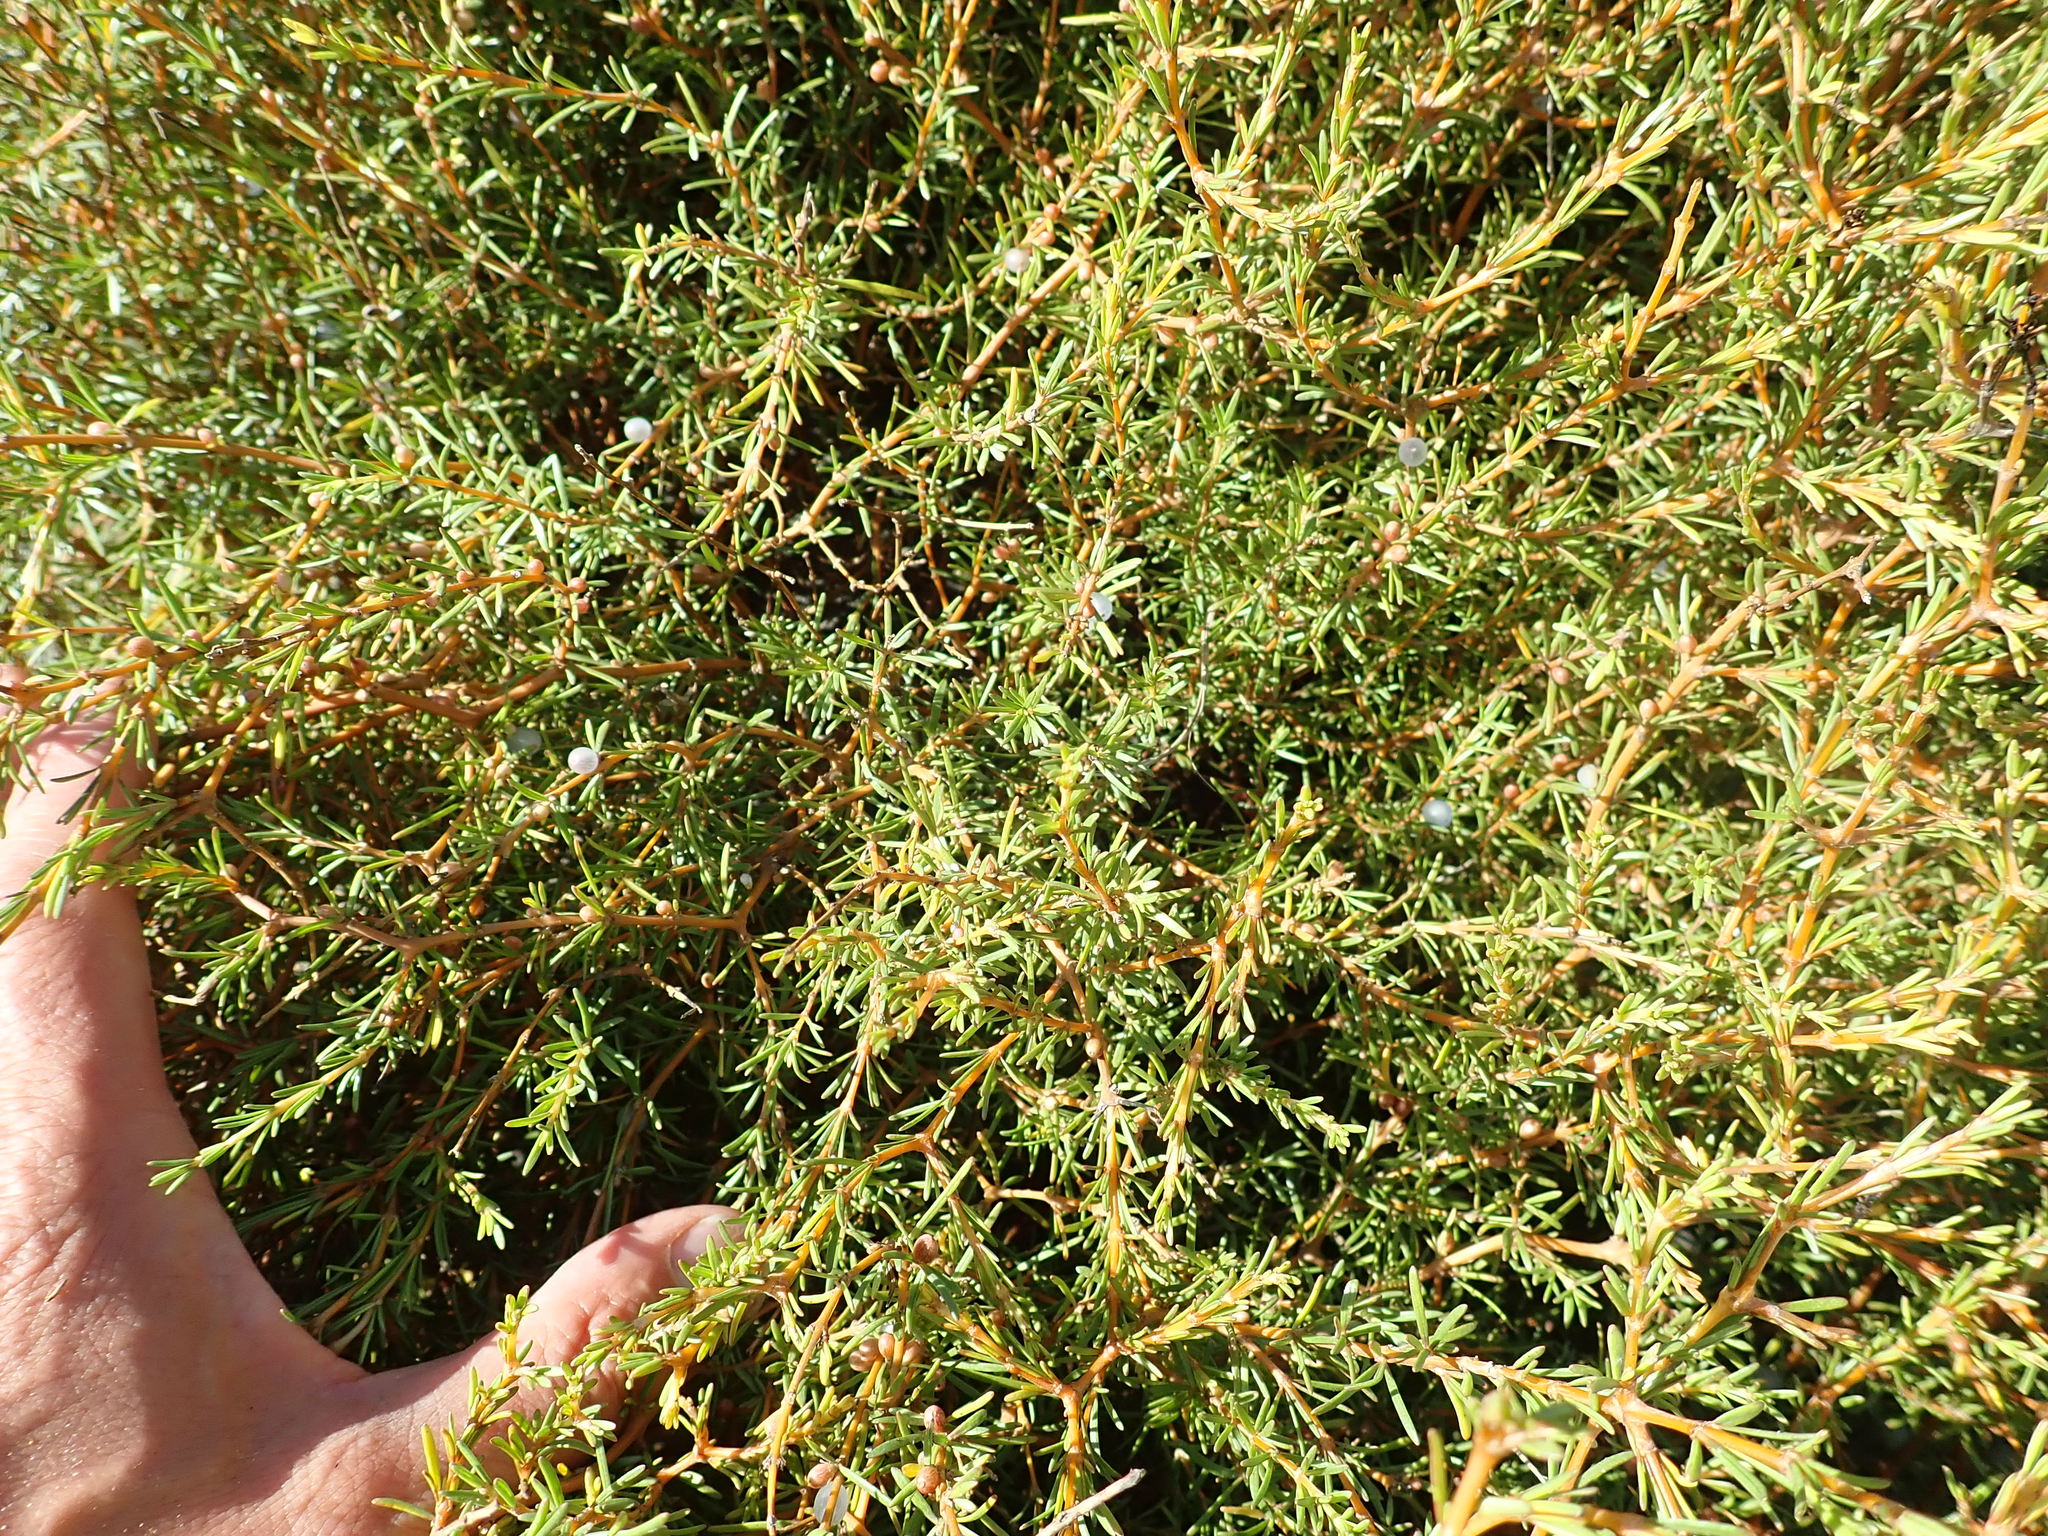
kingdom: Plantae
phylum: Tracheophyta
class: Magnoliopsida
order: Gentianales
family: Rubiaceae
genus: Coprosma
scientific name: Coprosma acerosa
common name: Sand coprosma
